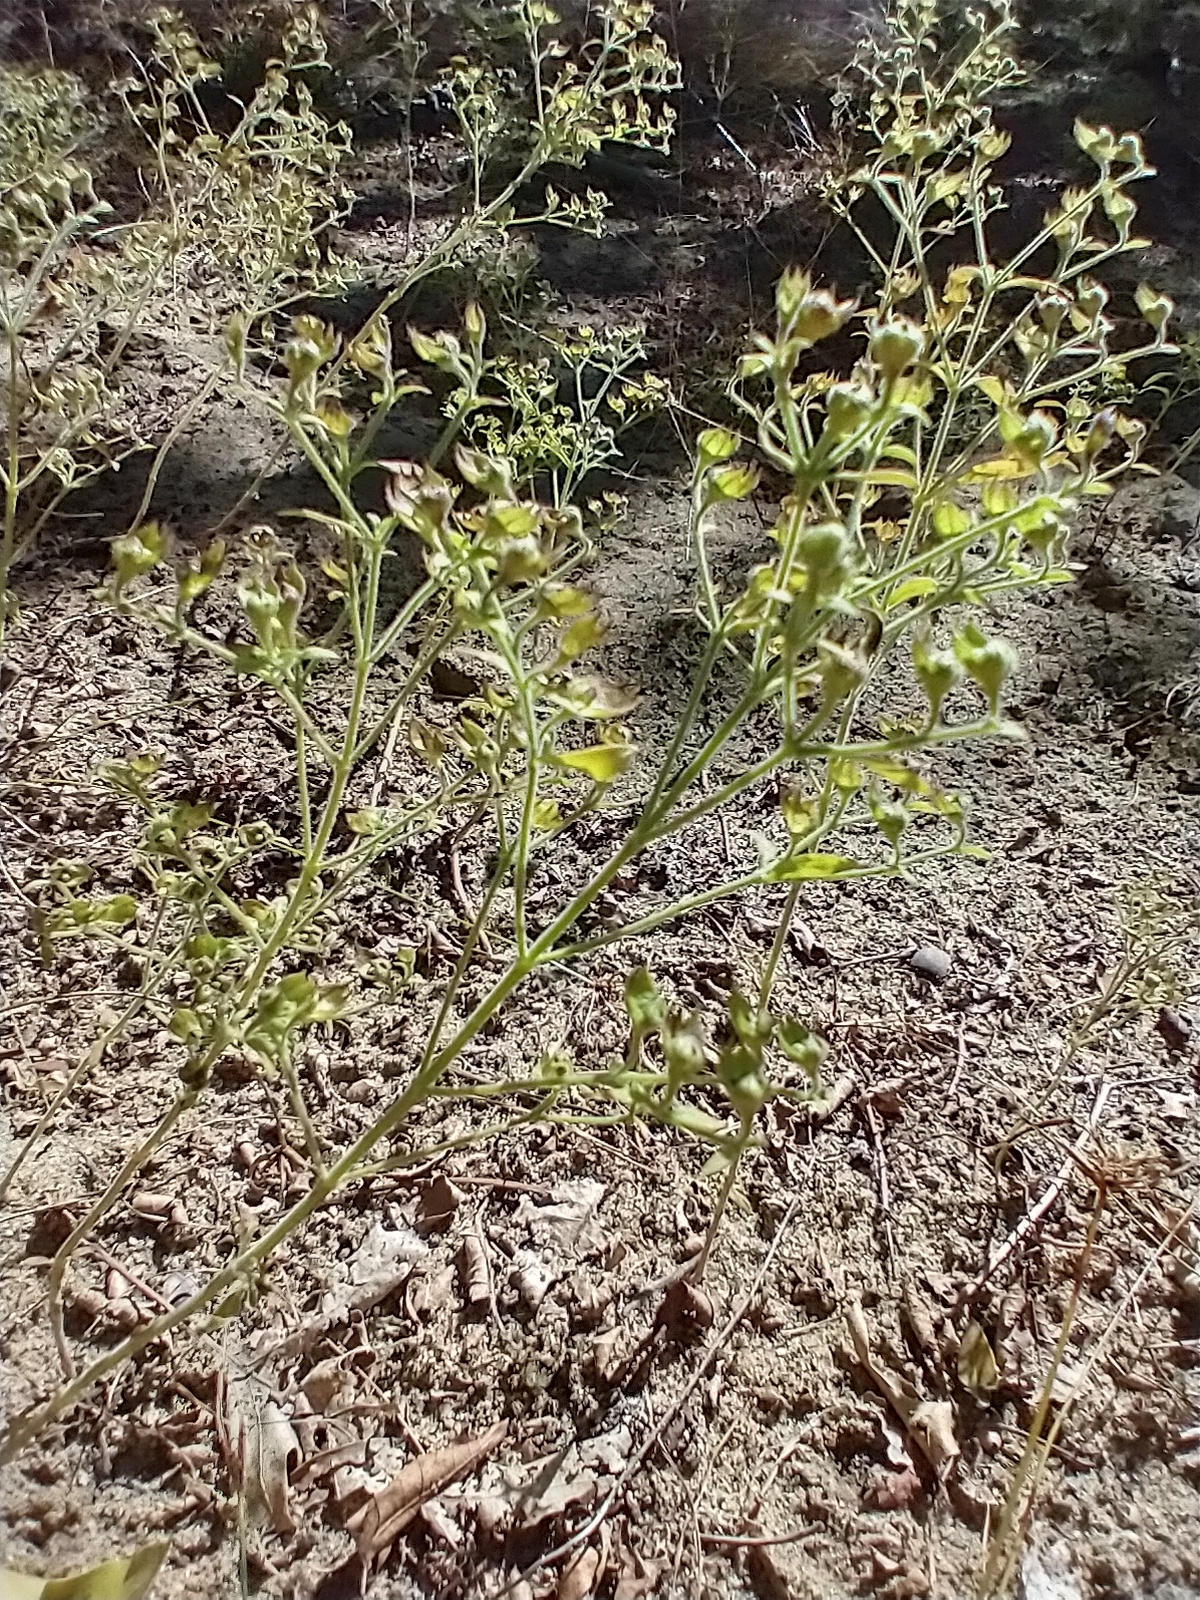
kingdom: Plantae
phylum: Tracheophyta
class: Magnoliopsida
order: Lamiales
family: Lamiaceae
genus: Trichostema
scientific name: Trichostema dichotomum
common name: Bastard pennyroyal
